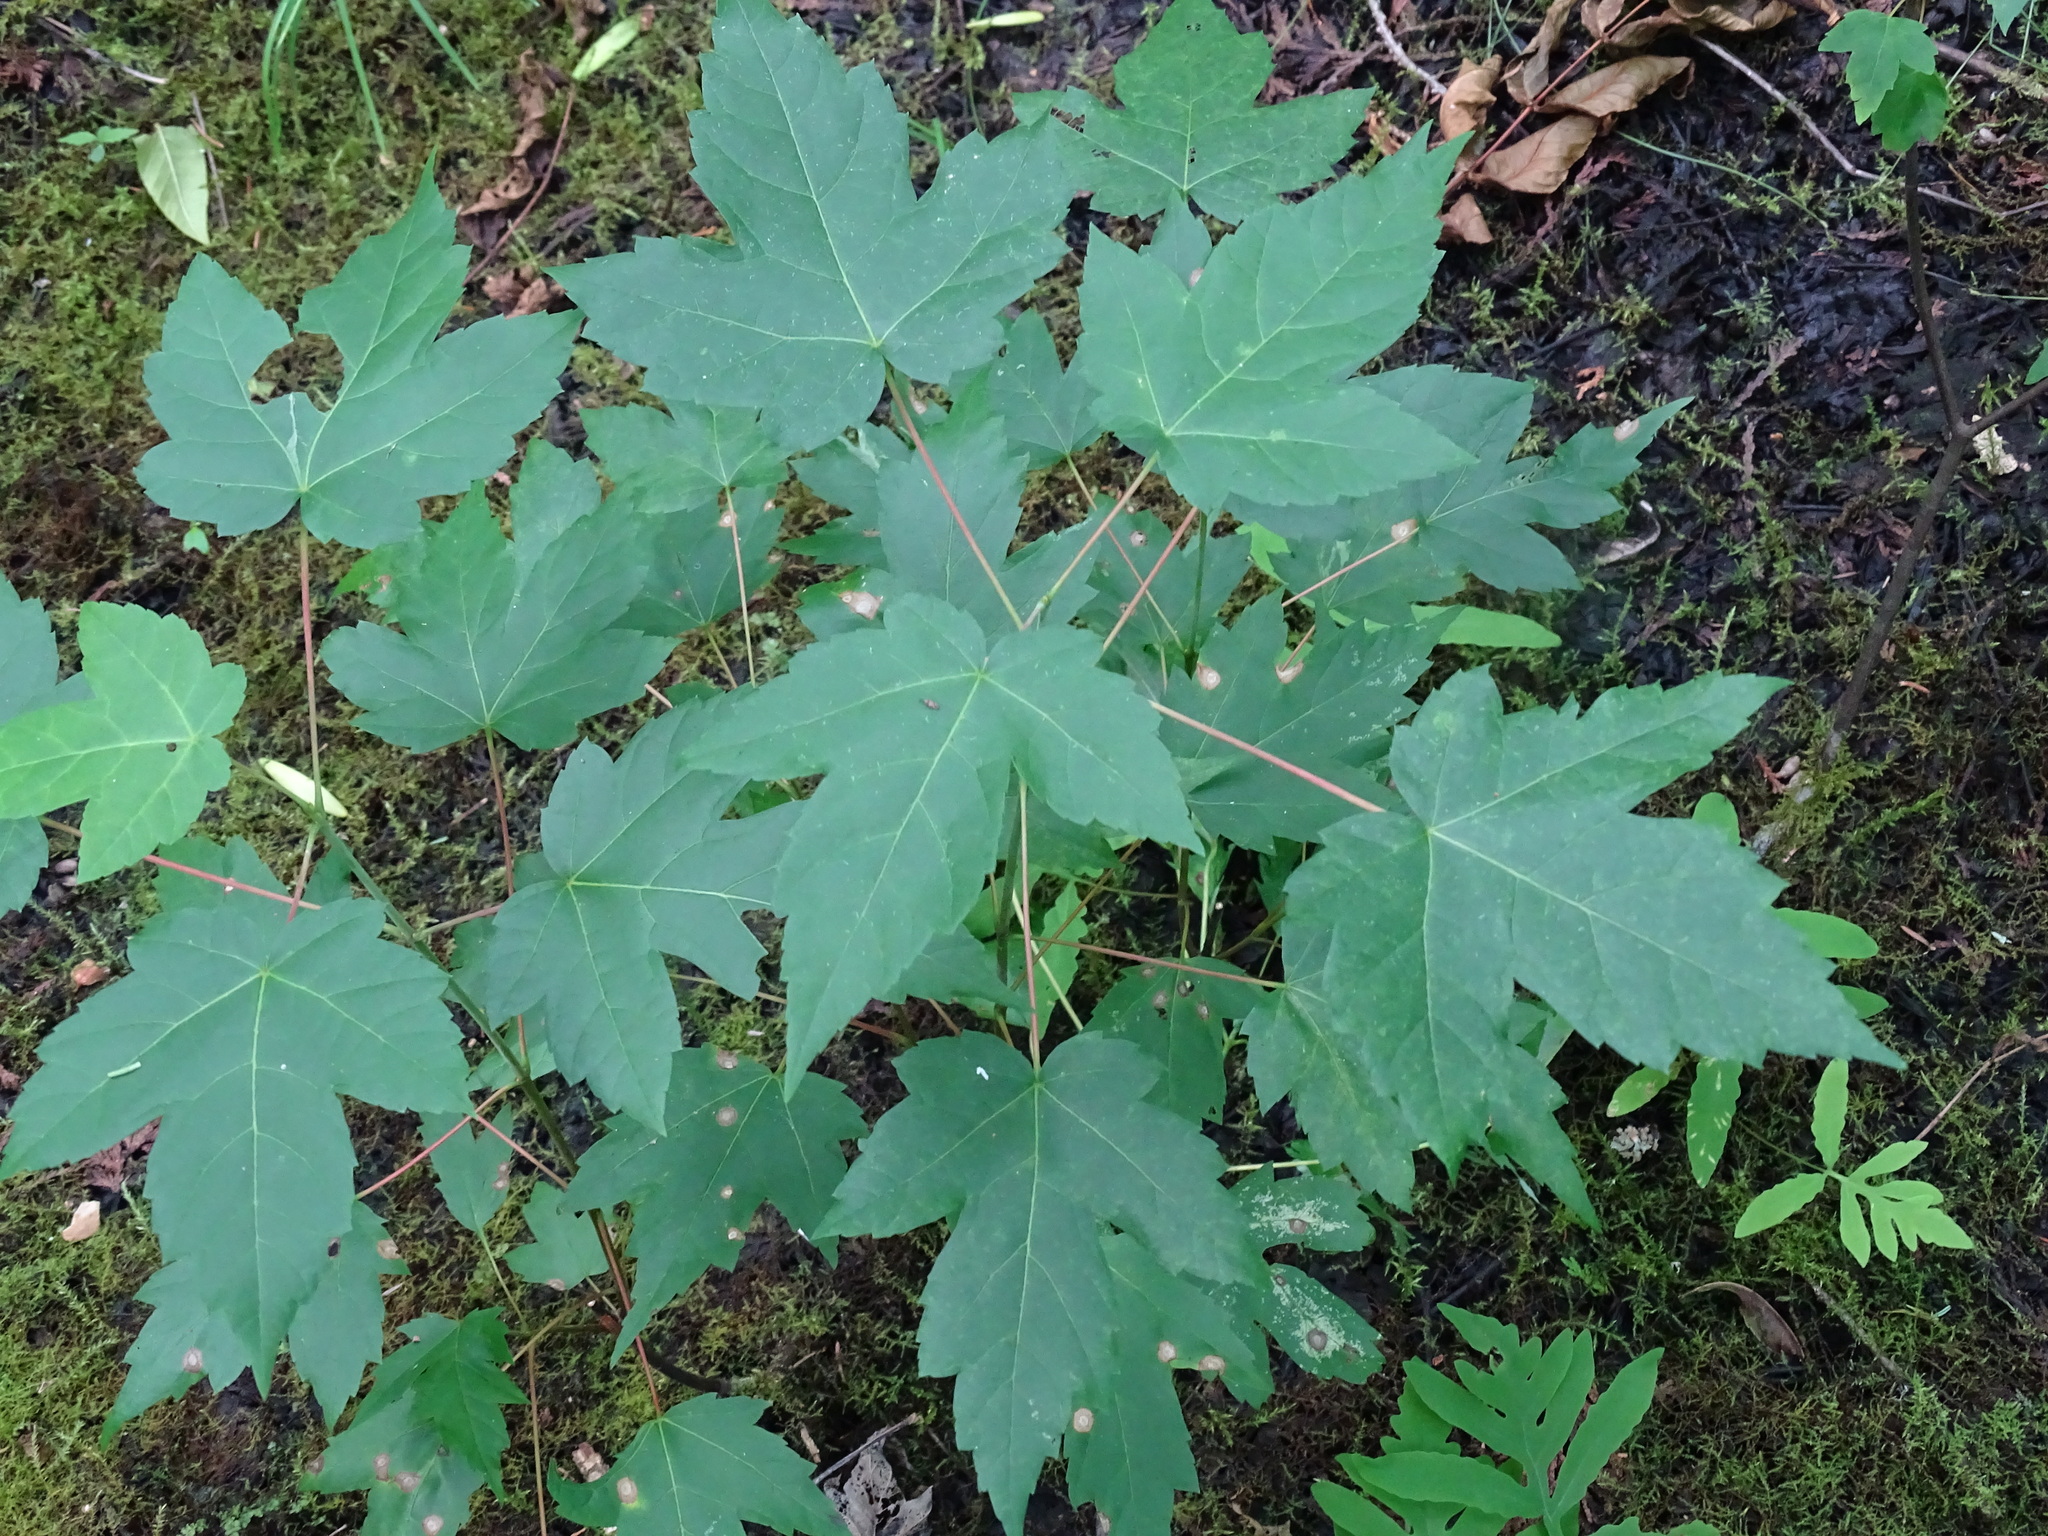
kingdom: Plantae
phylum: Tracheophyta
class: Magnoliopsida
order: Sapindales
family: Sapindaceae
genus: Acer
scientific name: Acer rubrum
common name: Red maple
